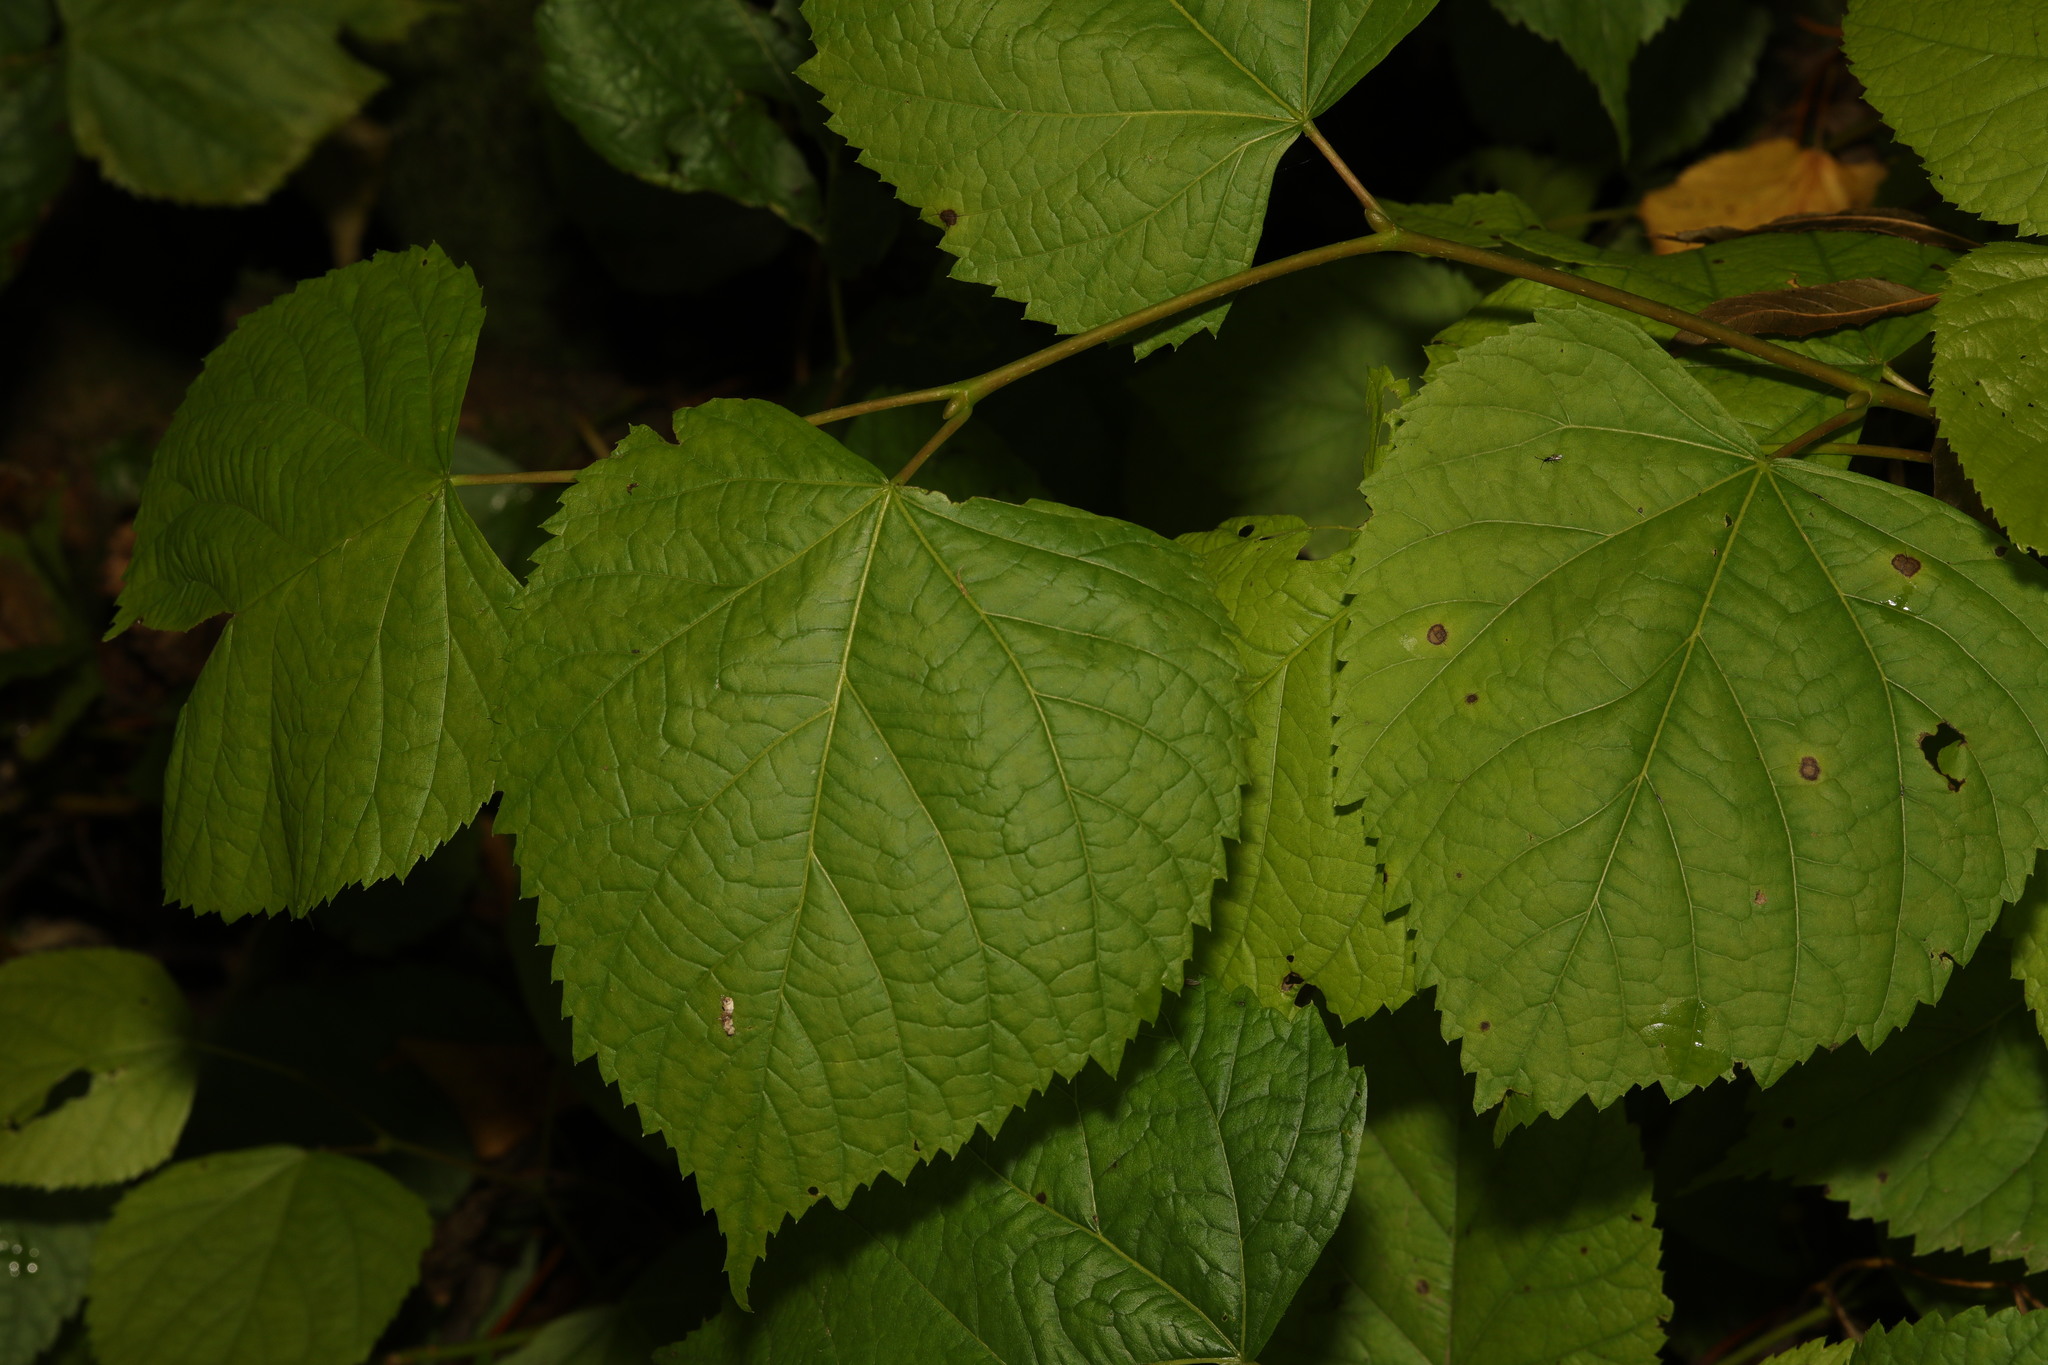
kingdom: Plantae
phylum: Tracheophyta
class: Magnoliopsida
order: Malvales
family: Malvaceae
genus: Tilia
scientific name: Tilia europaea
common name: European linden
